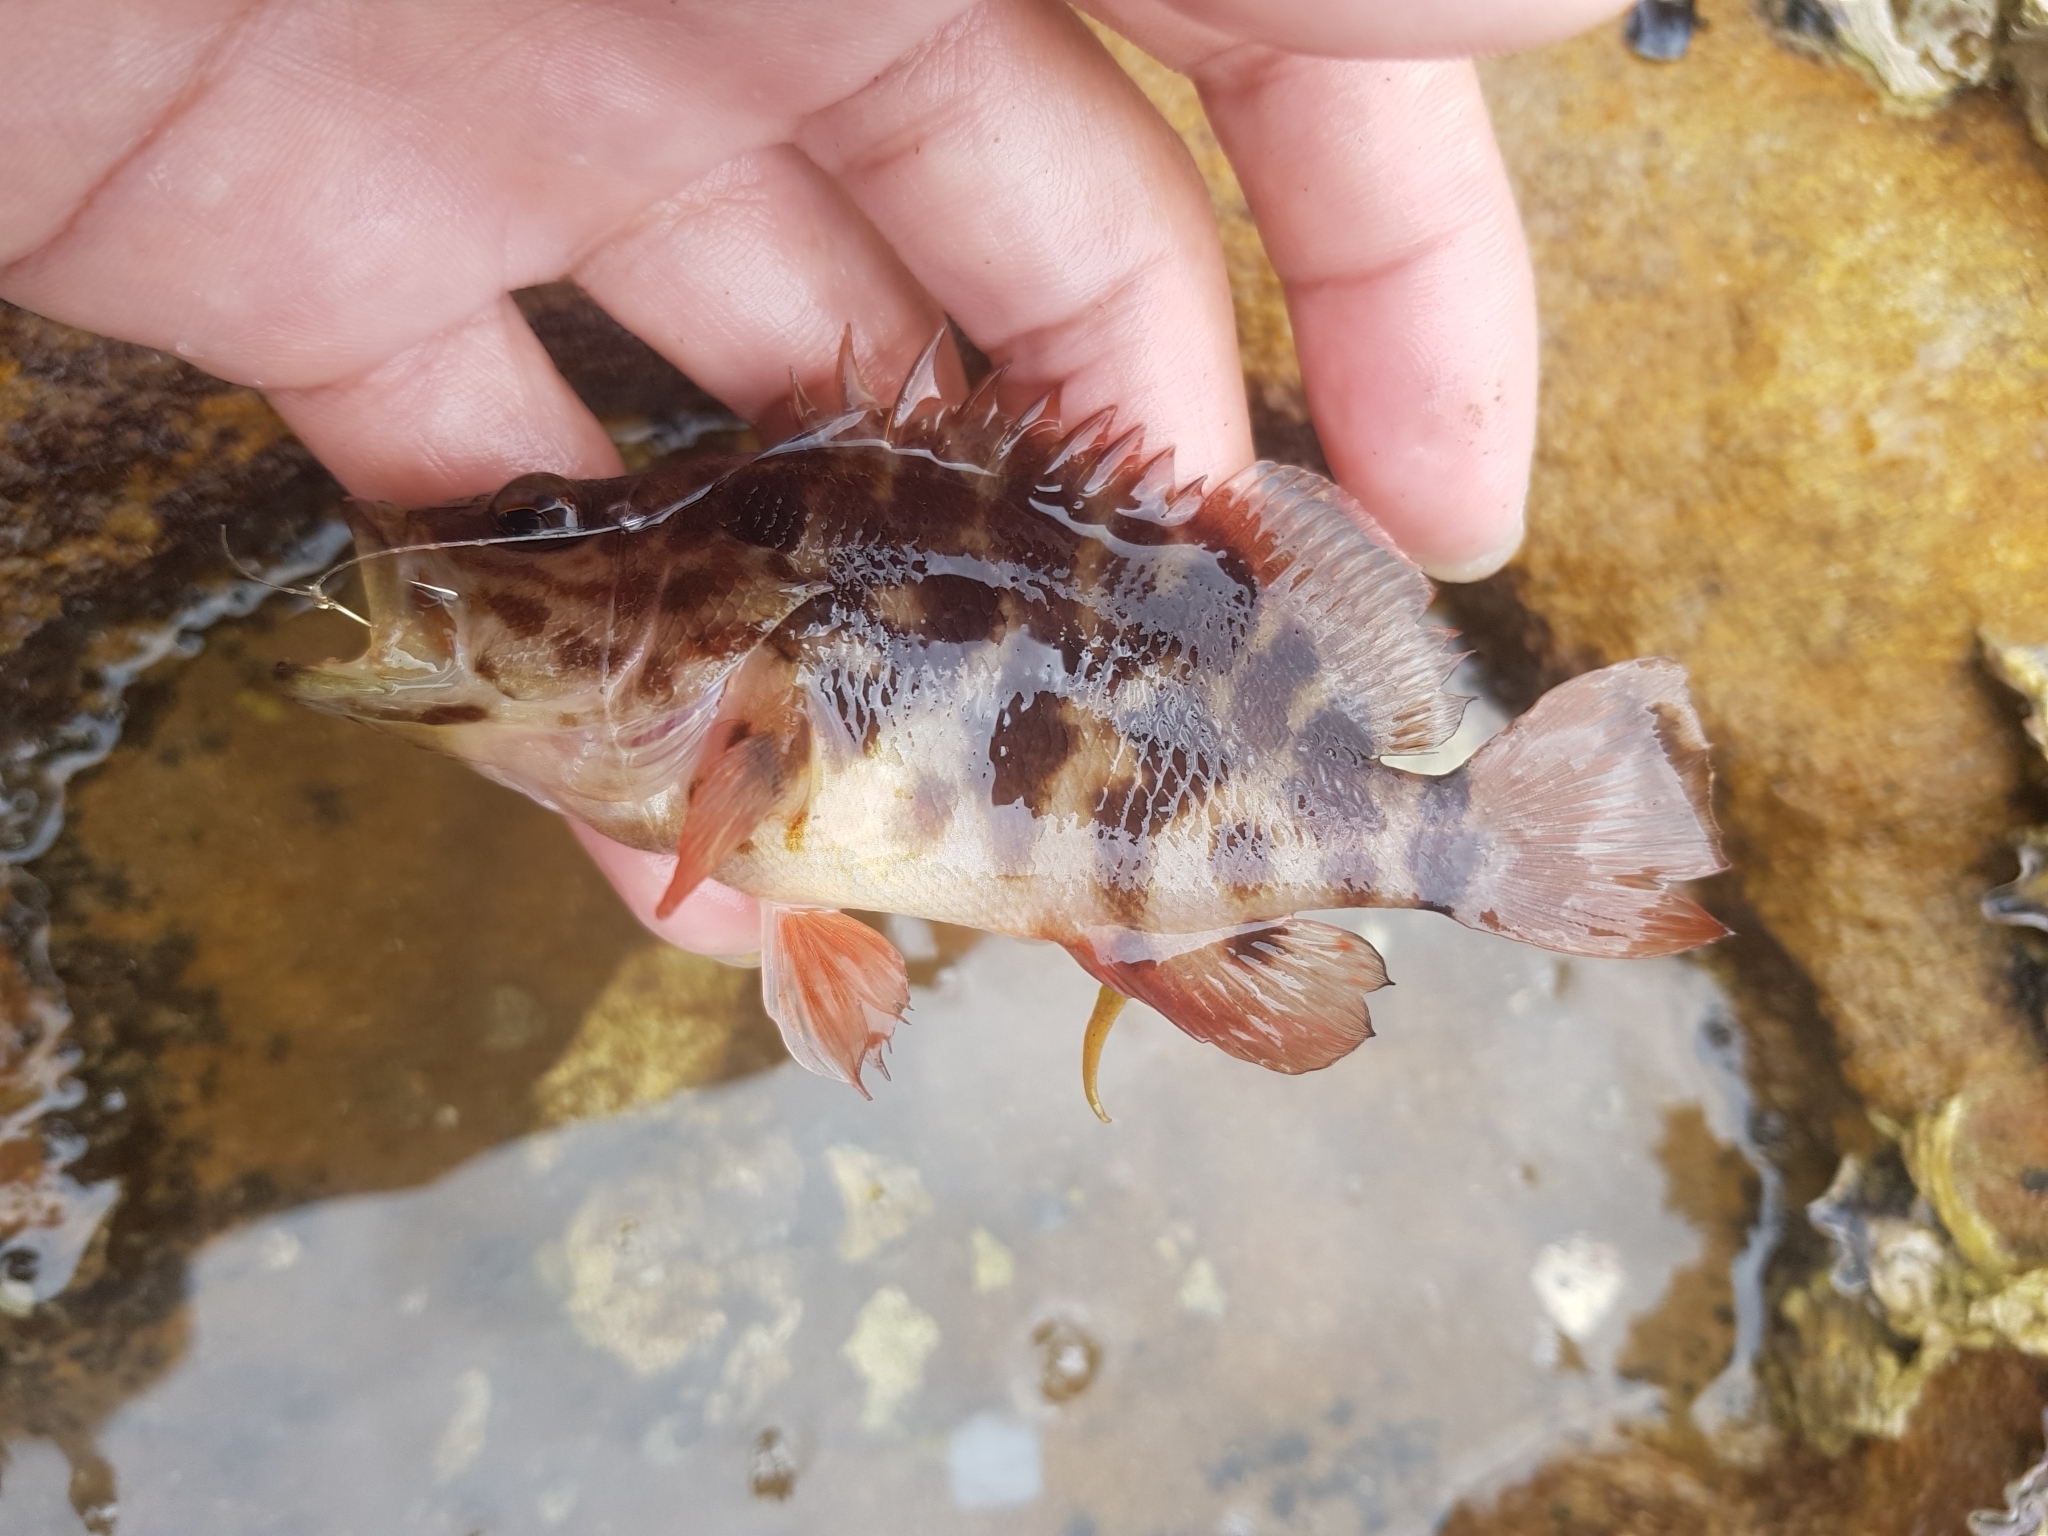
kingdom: Animalia
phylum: Chordata
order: Perciformes
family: Serranidae
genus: Hypoplectrodes
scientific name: Hypoplectrodes jamesoni
